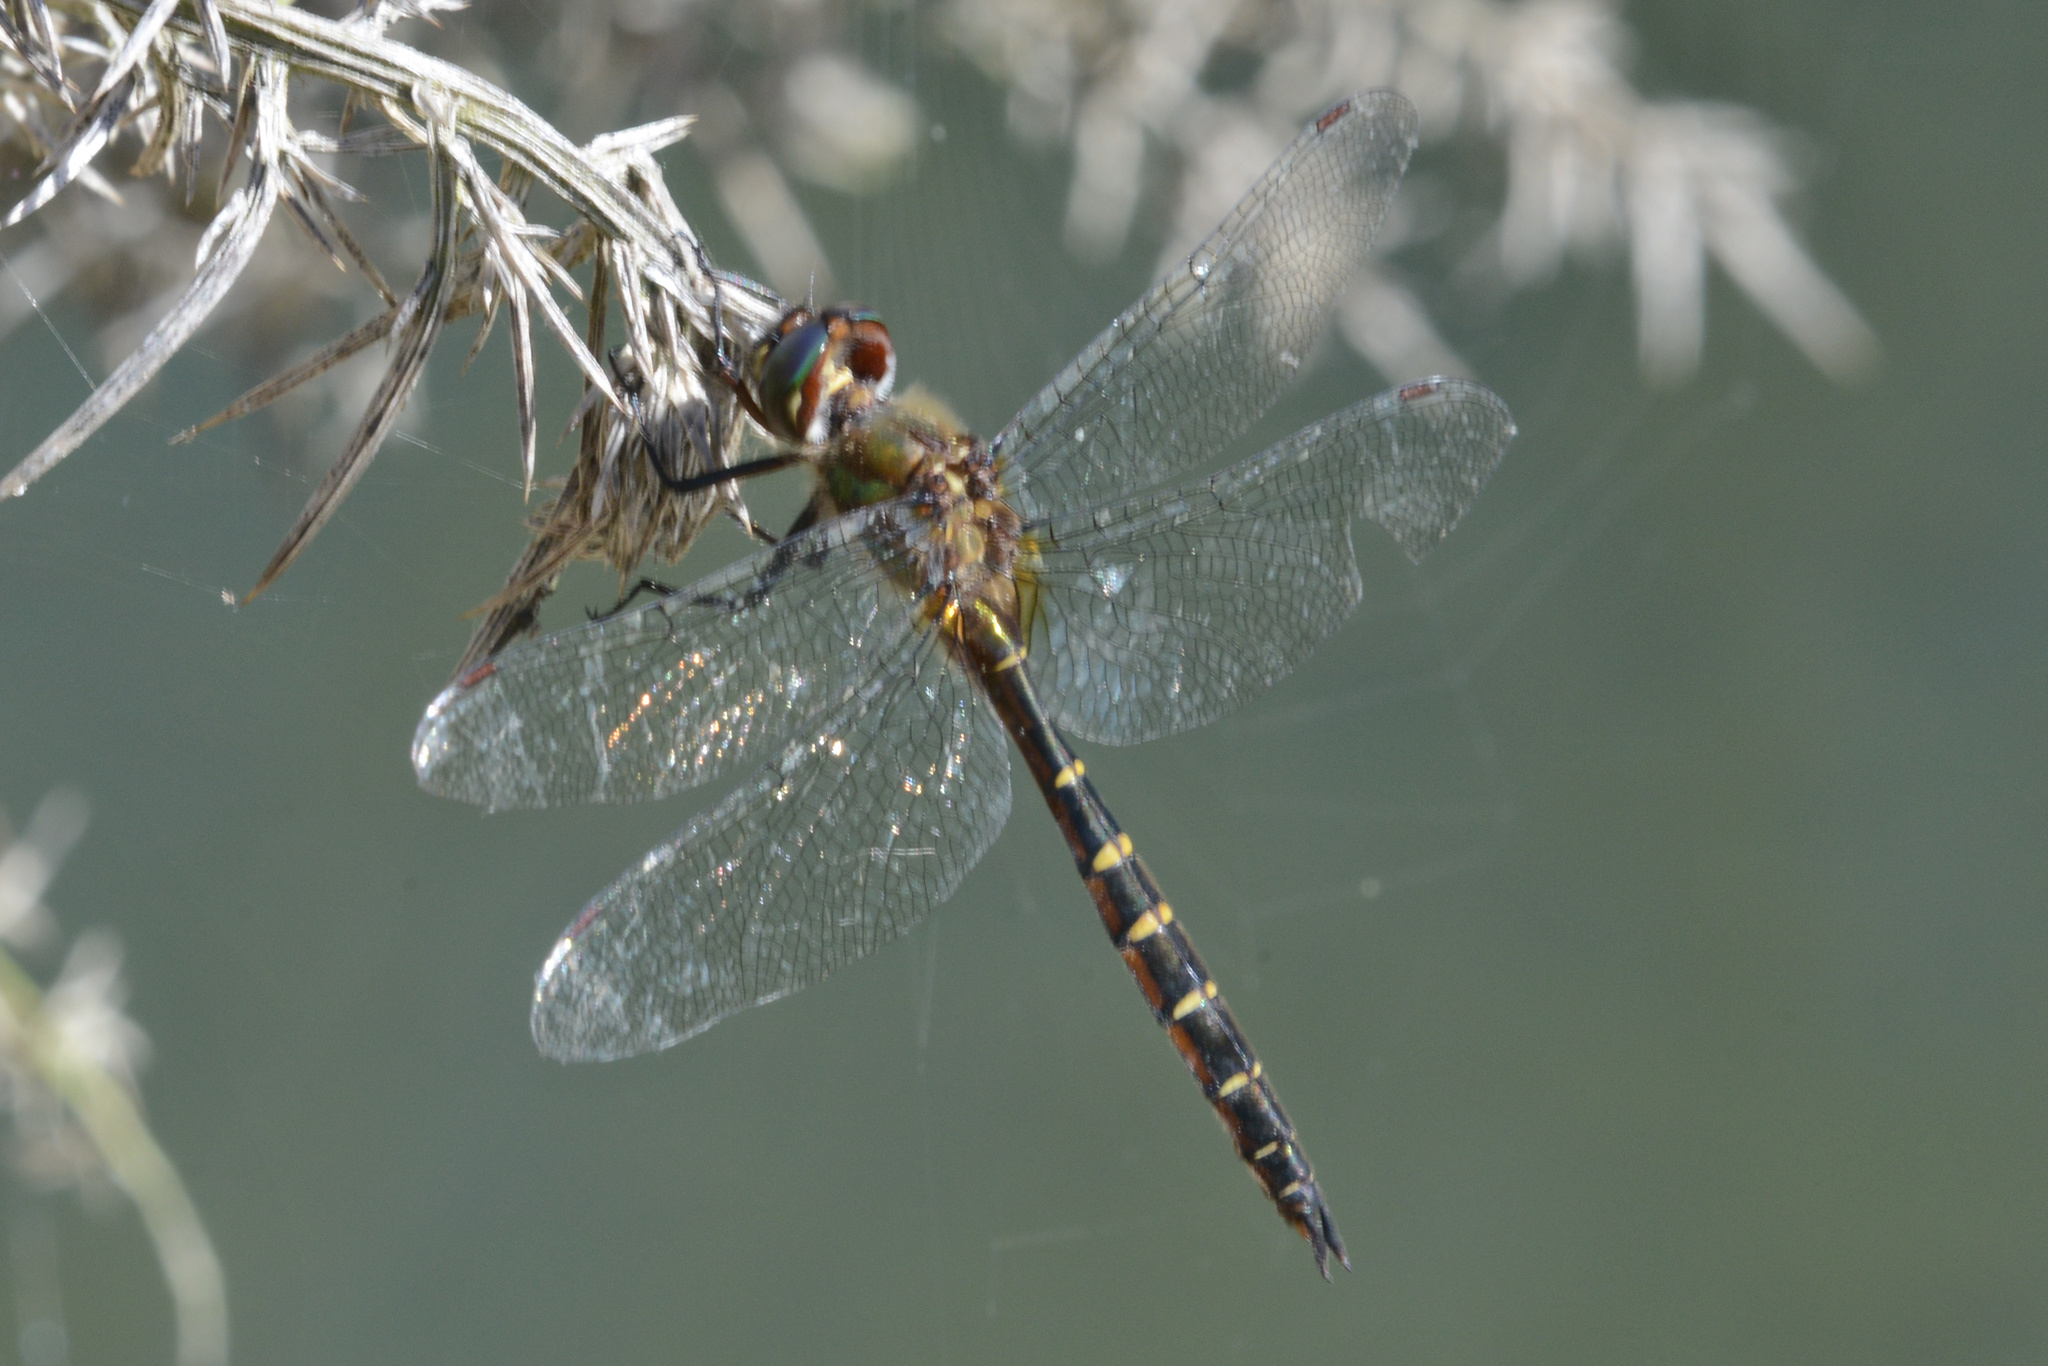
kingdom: Animalia
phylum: Arthropoda
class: Insecta
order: Odonata
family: Corduliidae
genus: Procordulia
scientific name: Procordulia smithii
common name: Ranger dragonfly
